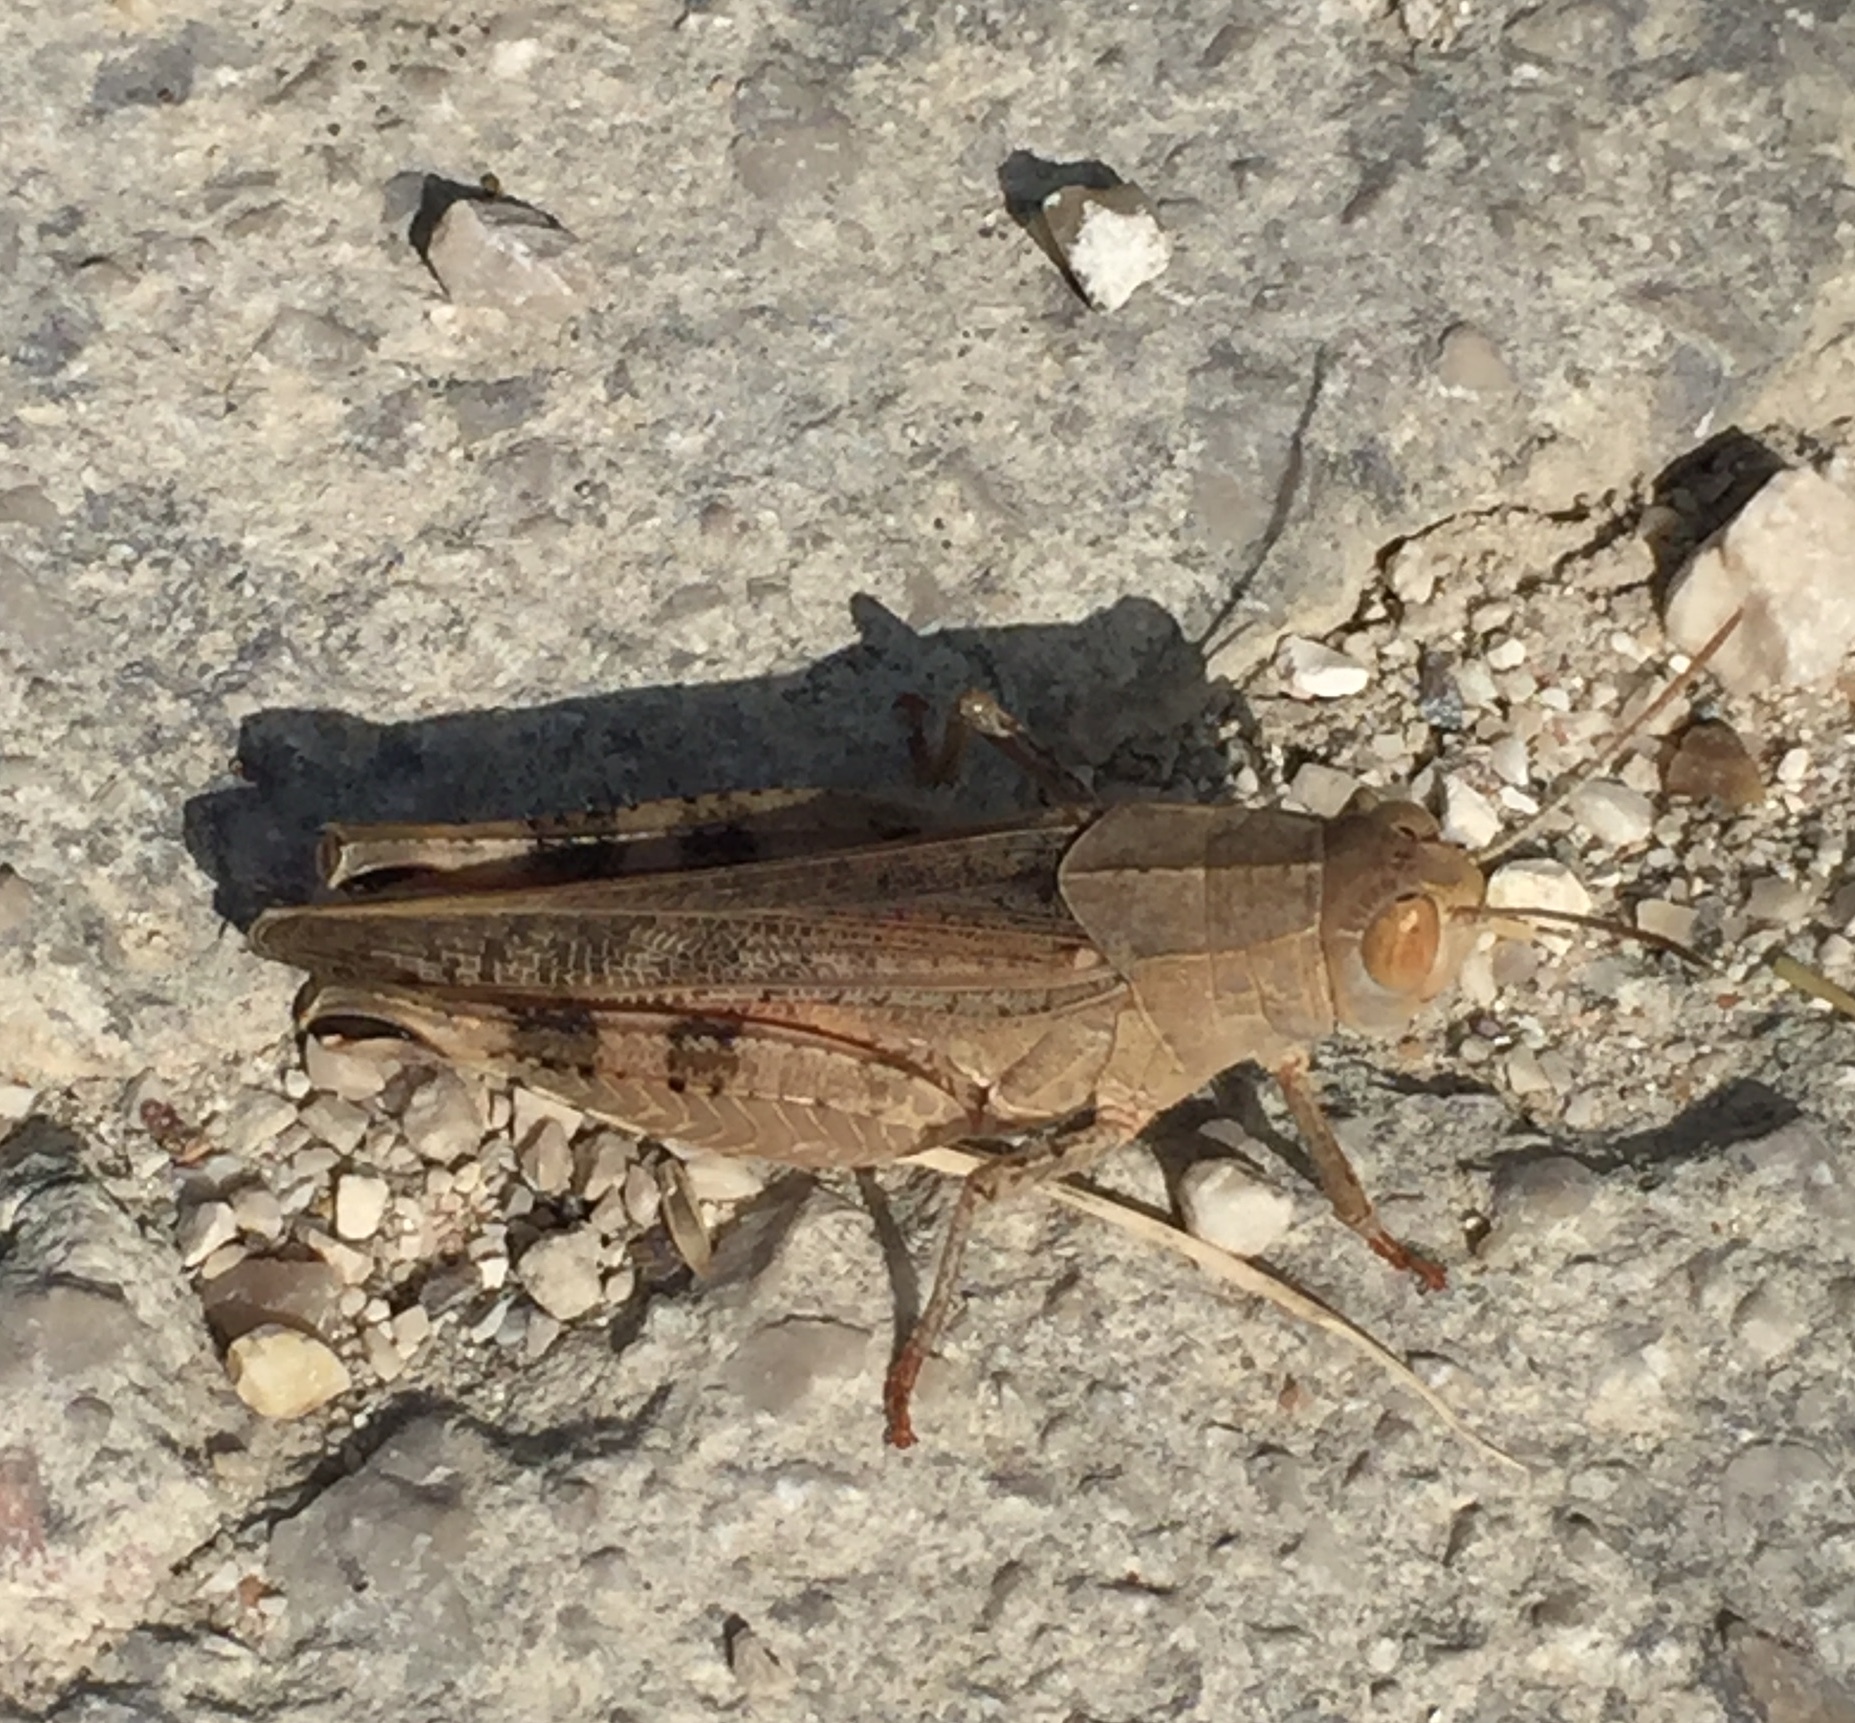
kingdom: Animalia
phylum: Arthropoda
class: Insecta
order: Orthoptera
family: Acrididae
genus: Calliptamus
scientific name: Calliptamus
